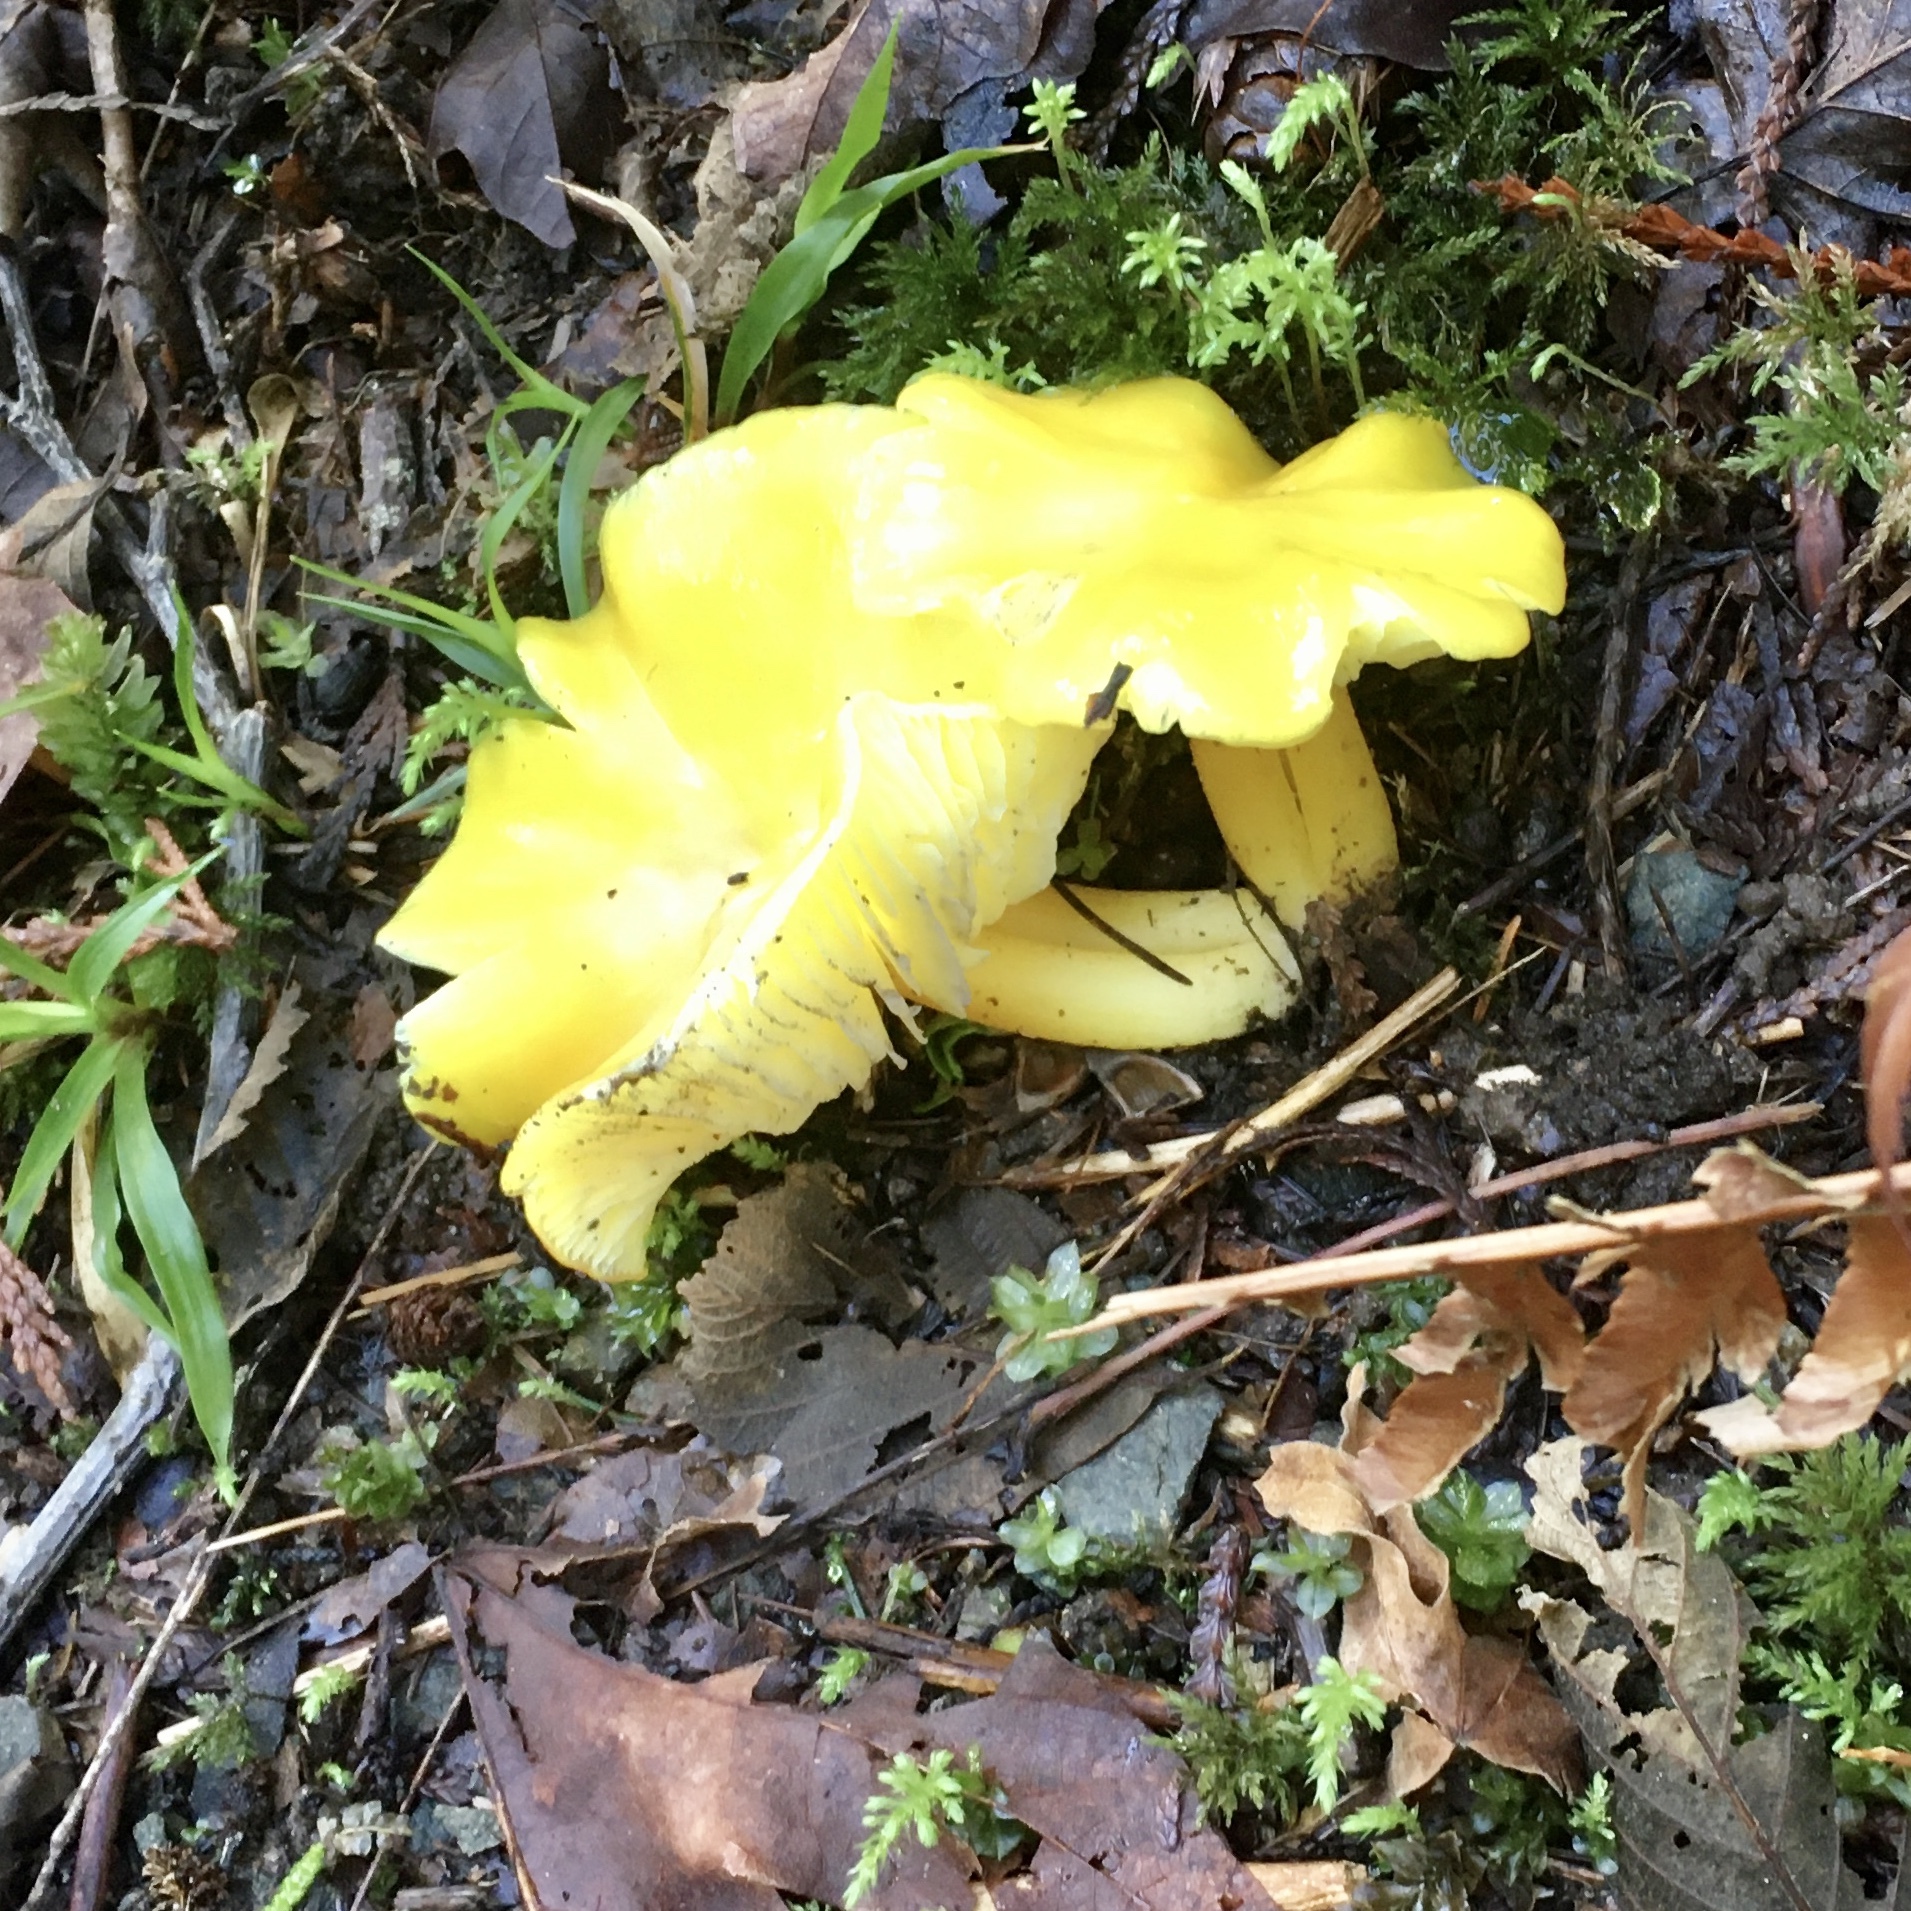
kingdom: Fungi
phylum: Basidiomycota
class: Agaricomycetes
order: Agaricales
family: Hygrophoraceae
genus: Hygrocybe
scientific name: Hygrocybe flavescens
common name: Golden waxy cap
